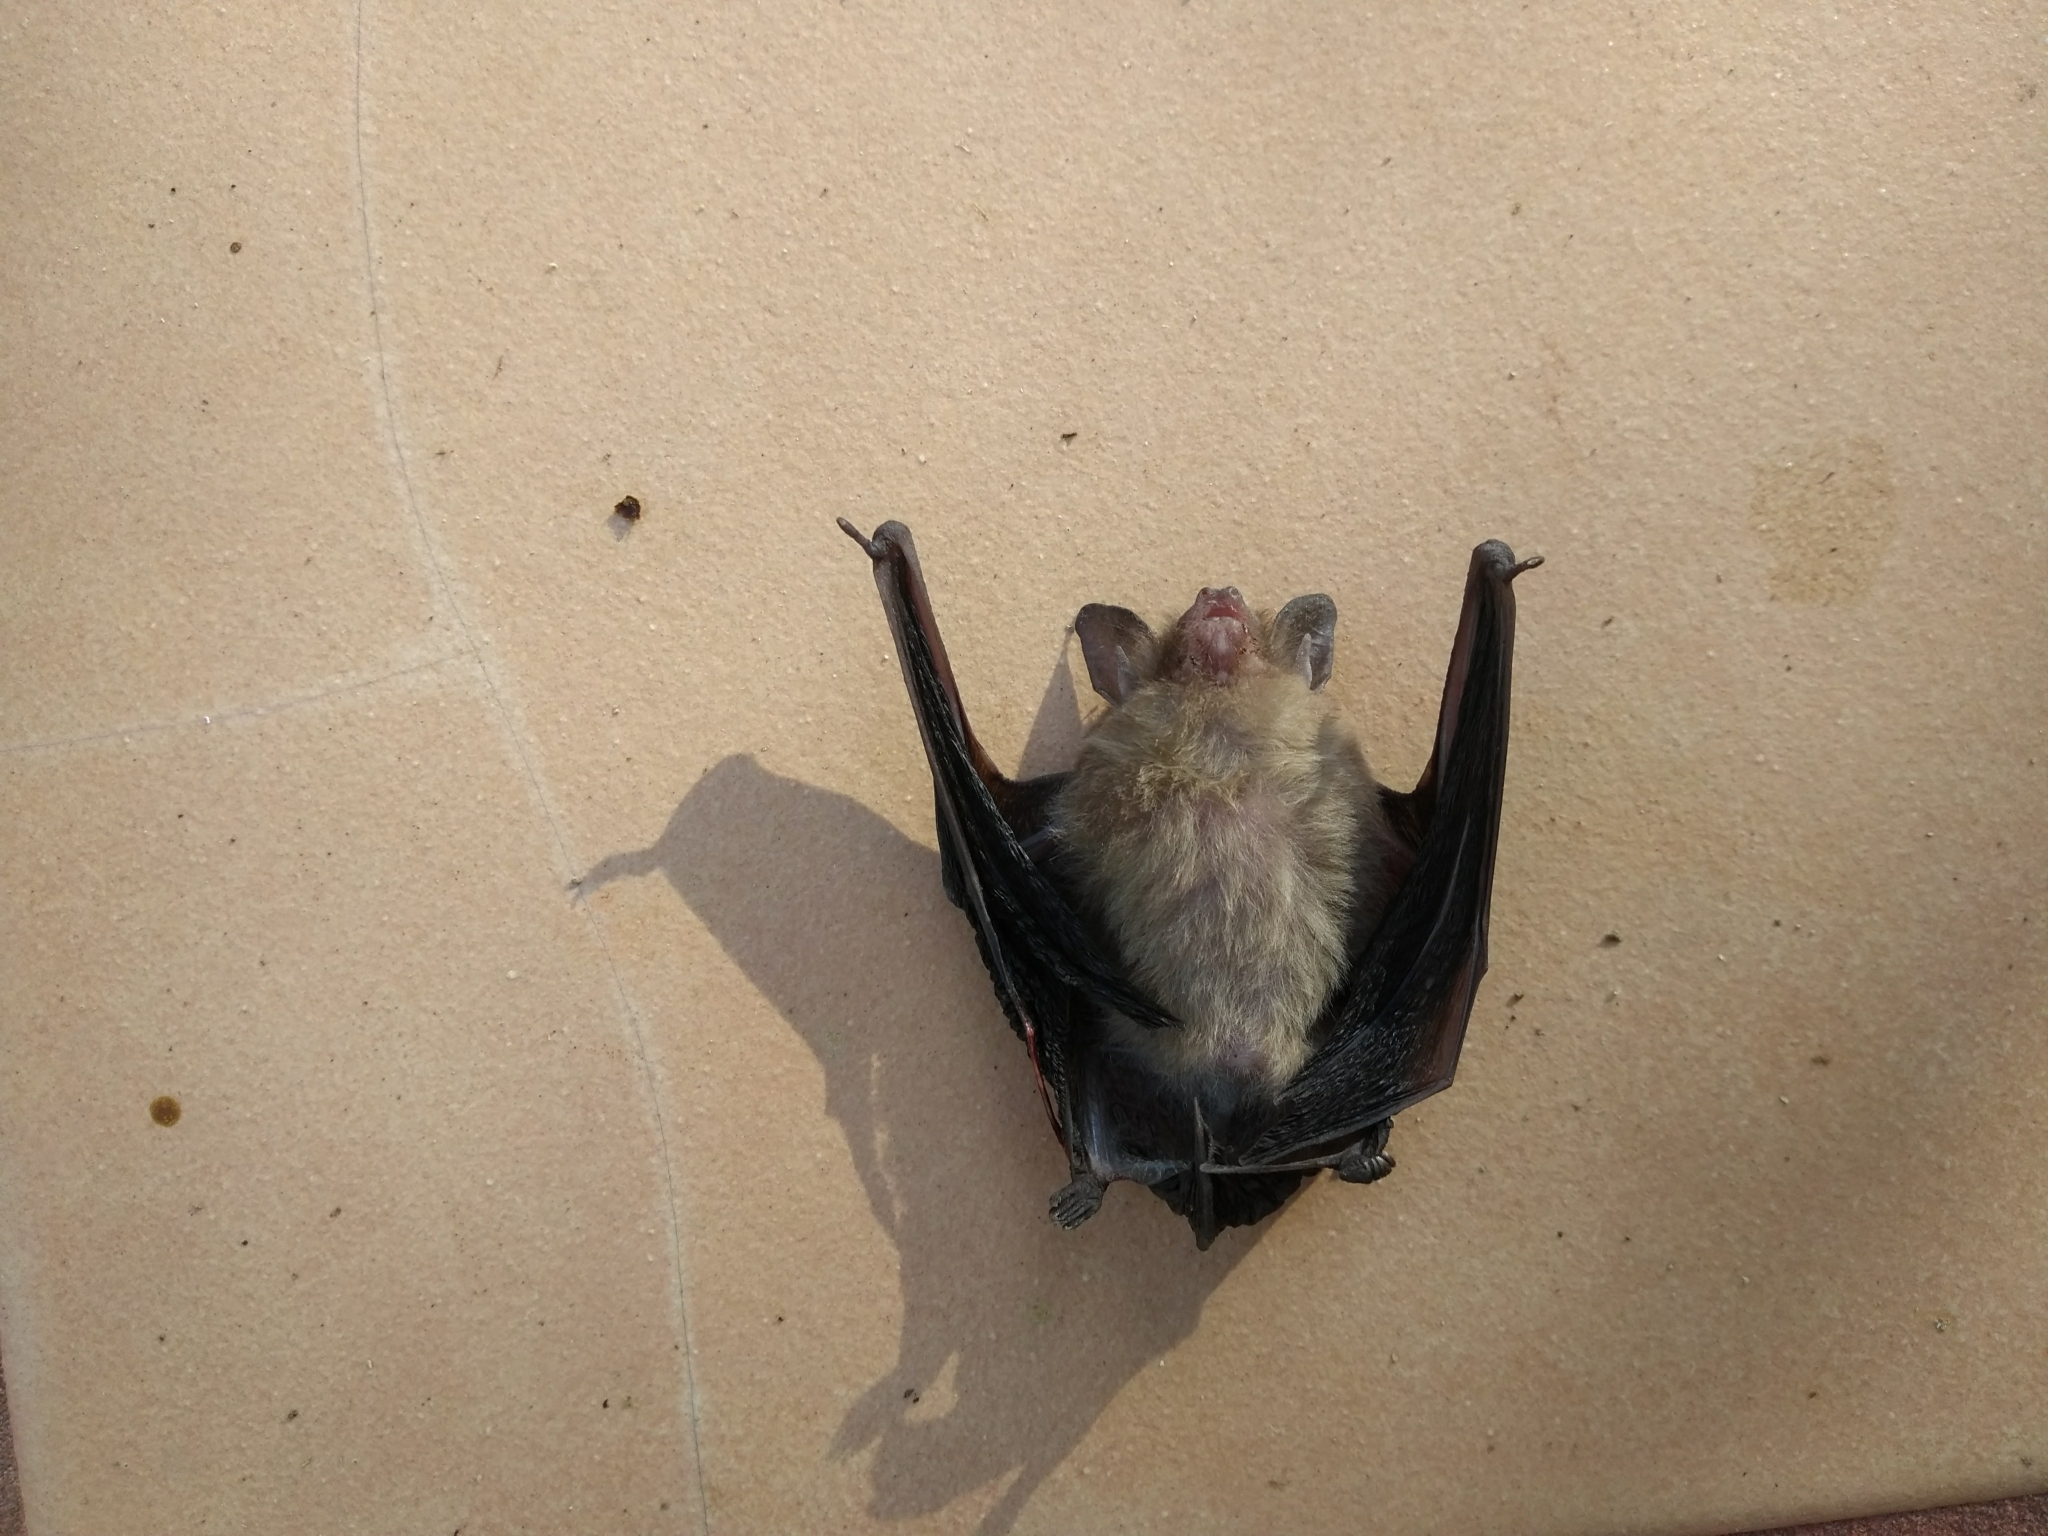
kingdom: Animalia
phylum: Chordata
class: Mammalia
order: Chiroptera
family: Vespertilionidae
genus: Rhogeessa
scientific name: Rhogeessa parvula
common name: Little yellow bat
